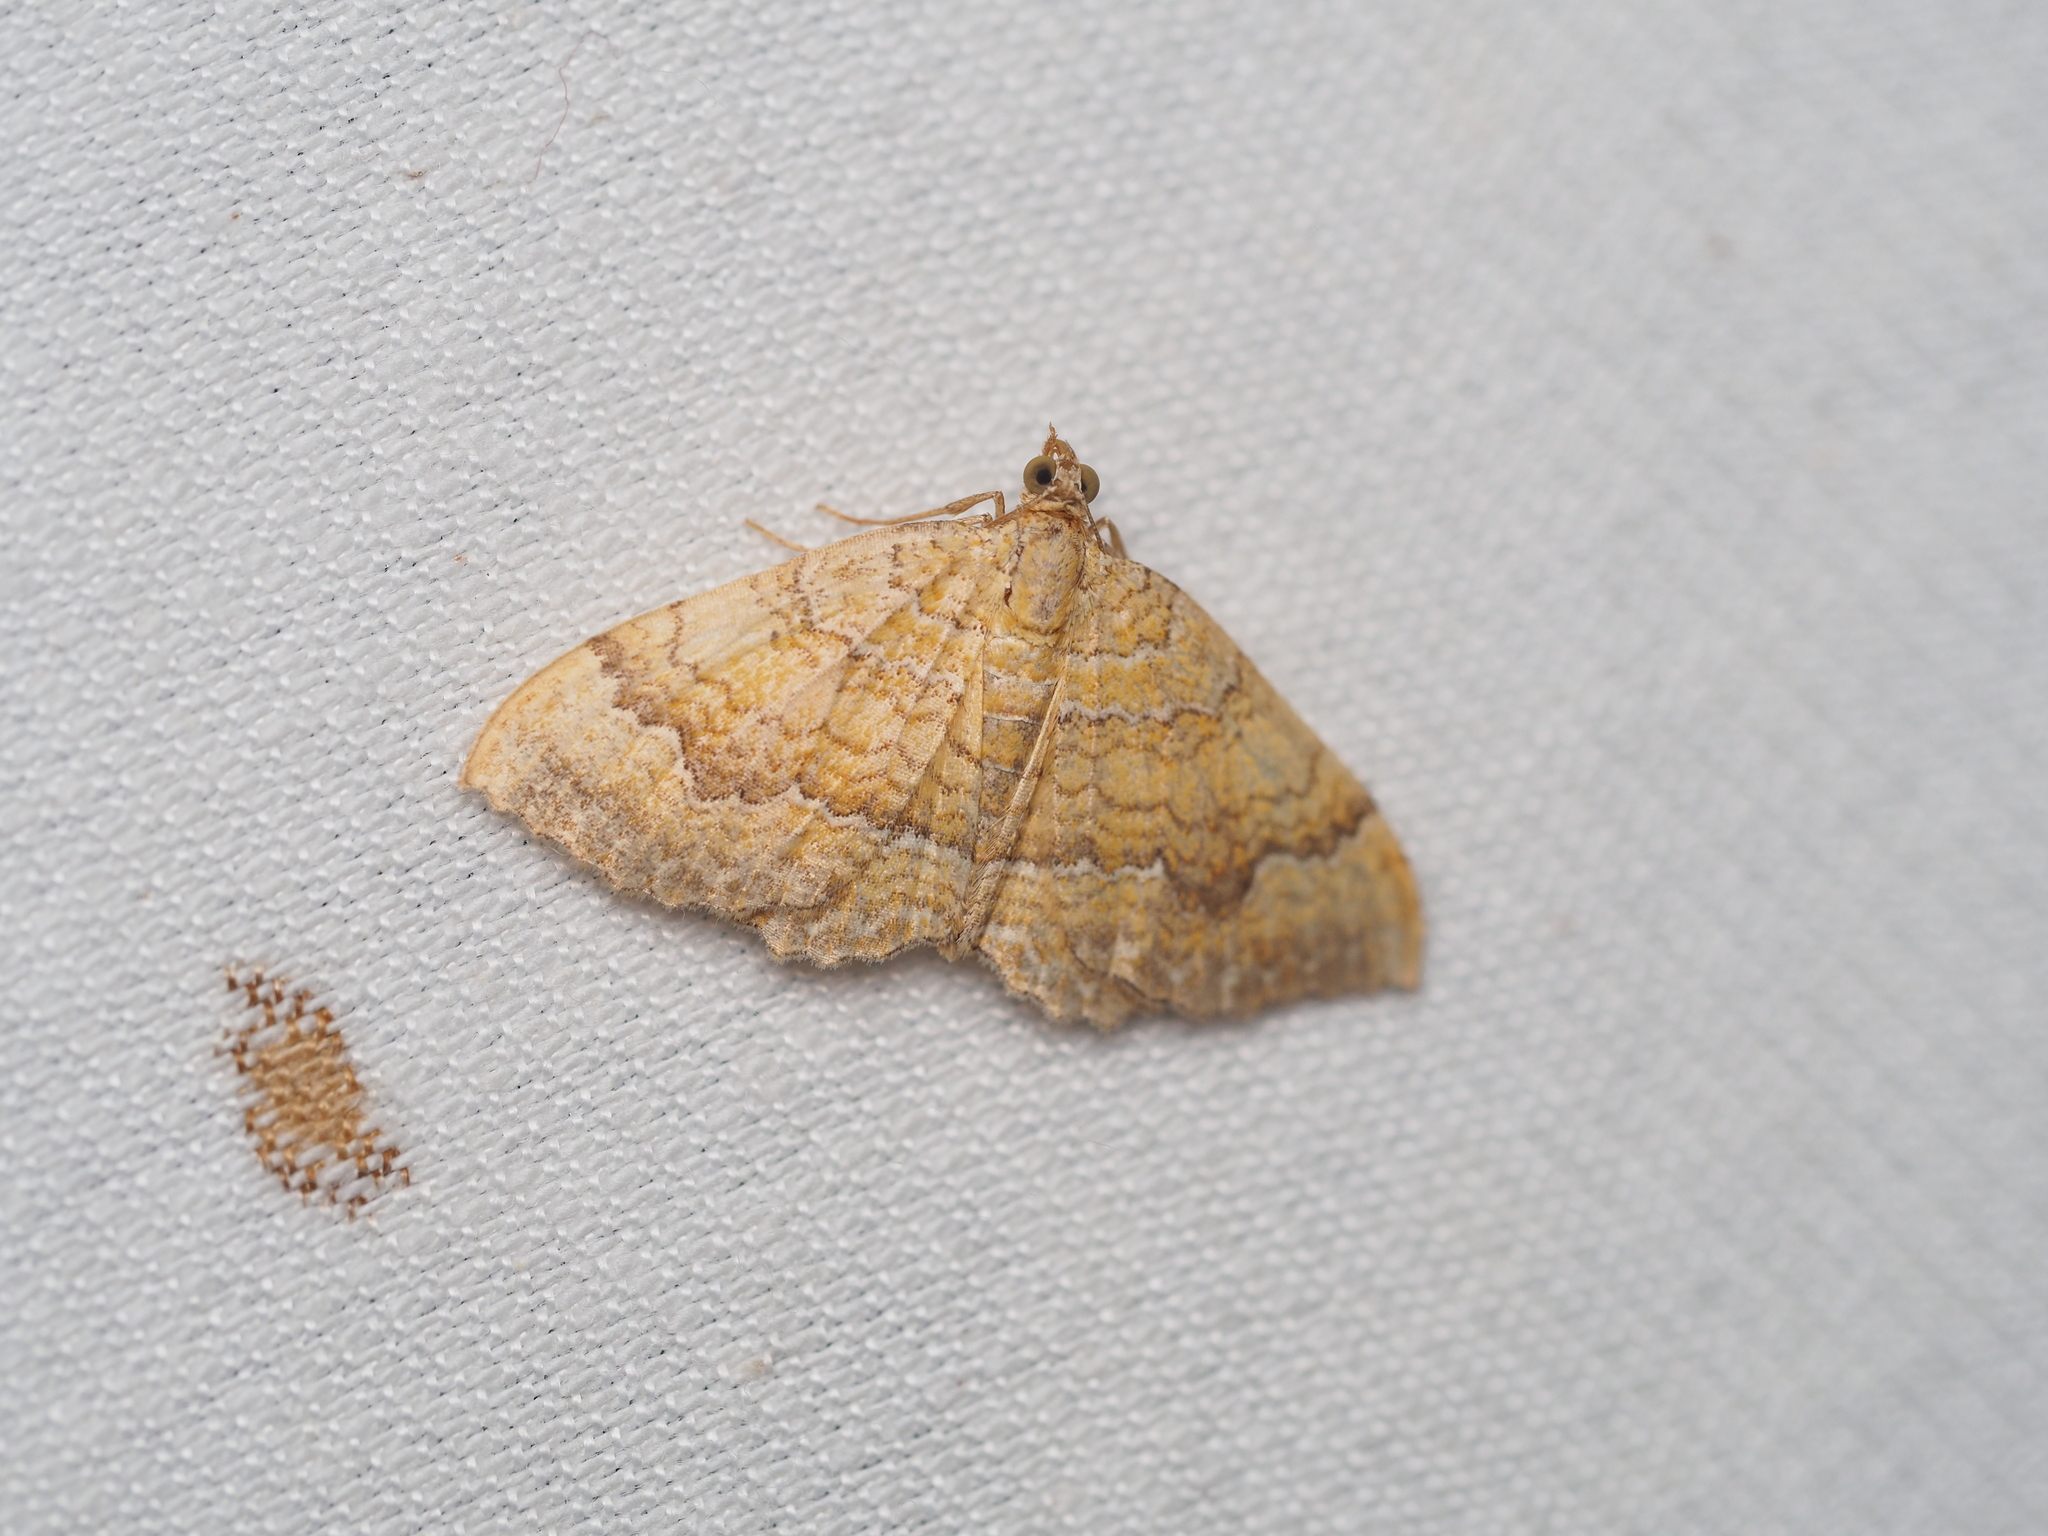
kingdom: Animalia
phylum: Arthropoda
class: Insecta
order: Lepidoptera
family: Geometridae
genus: Camptogramma
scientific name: Camptogramma bilineata
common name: Yellow shell
